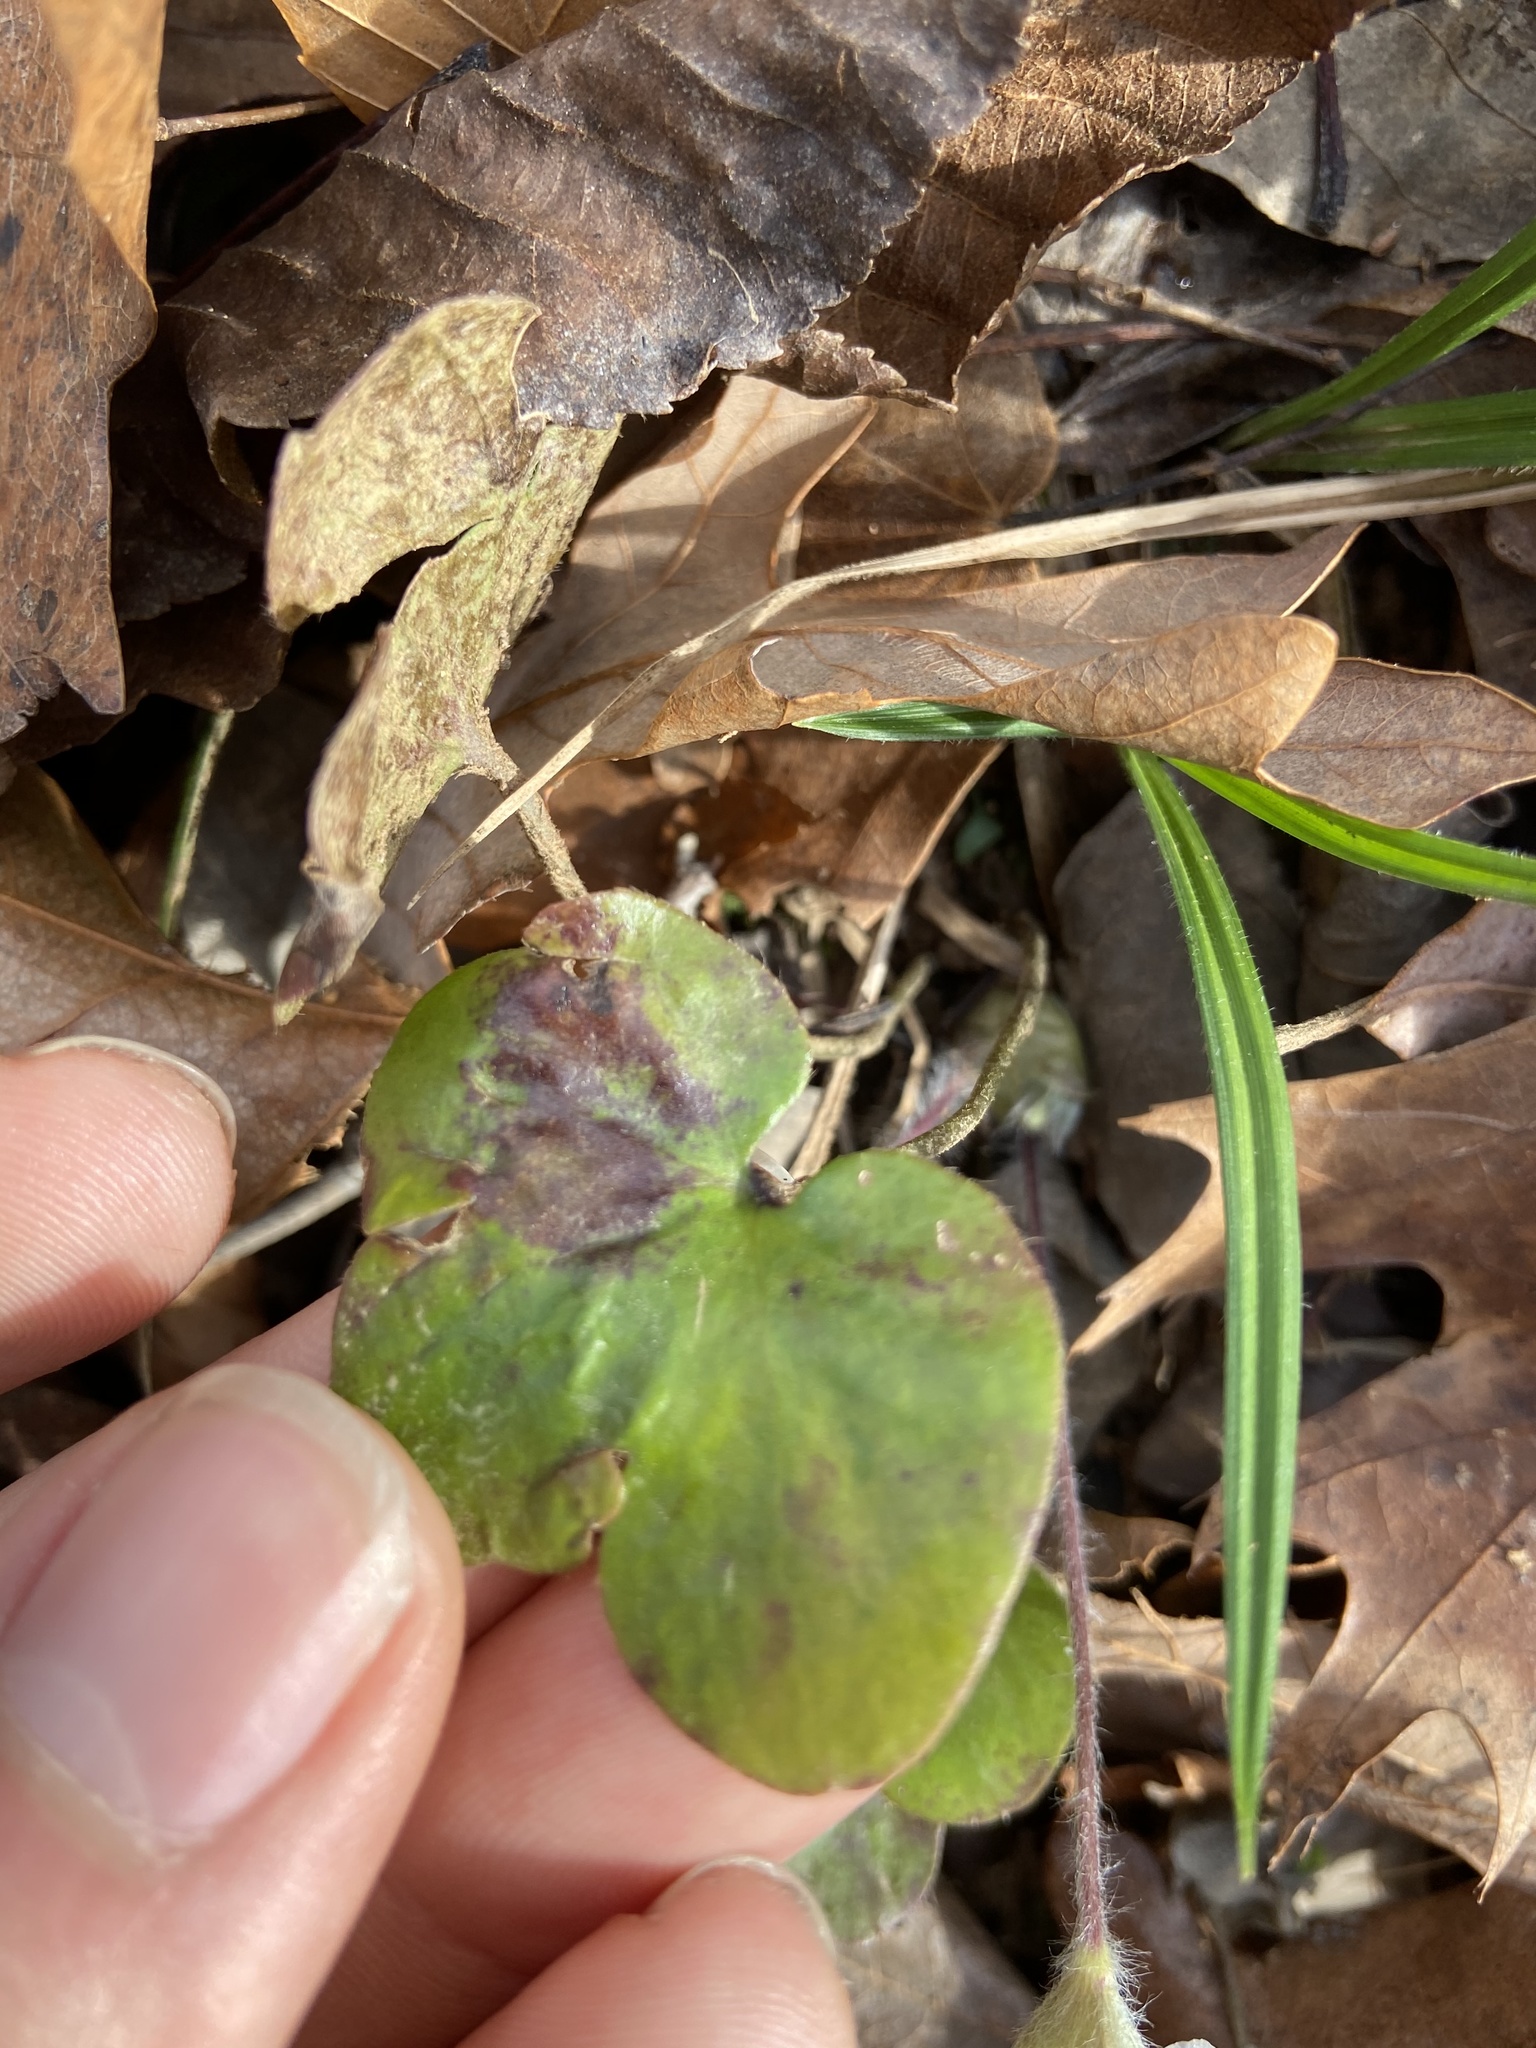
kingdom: Plantae
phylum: Tracheophyta
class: Magnoliopsida
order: Ranunculales
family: Ranunculaceae
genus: Hepatica
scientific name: Hepatica americana
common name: American hepatica
